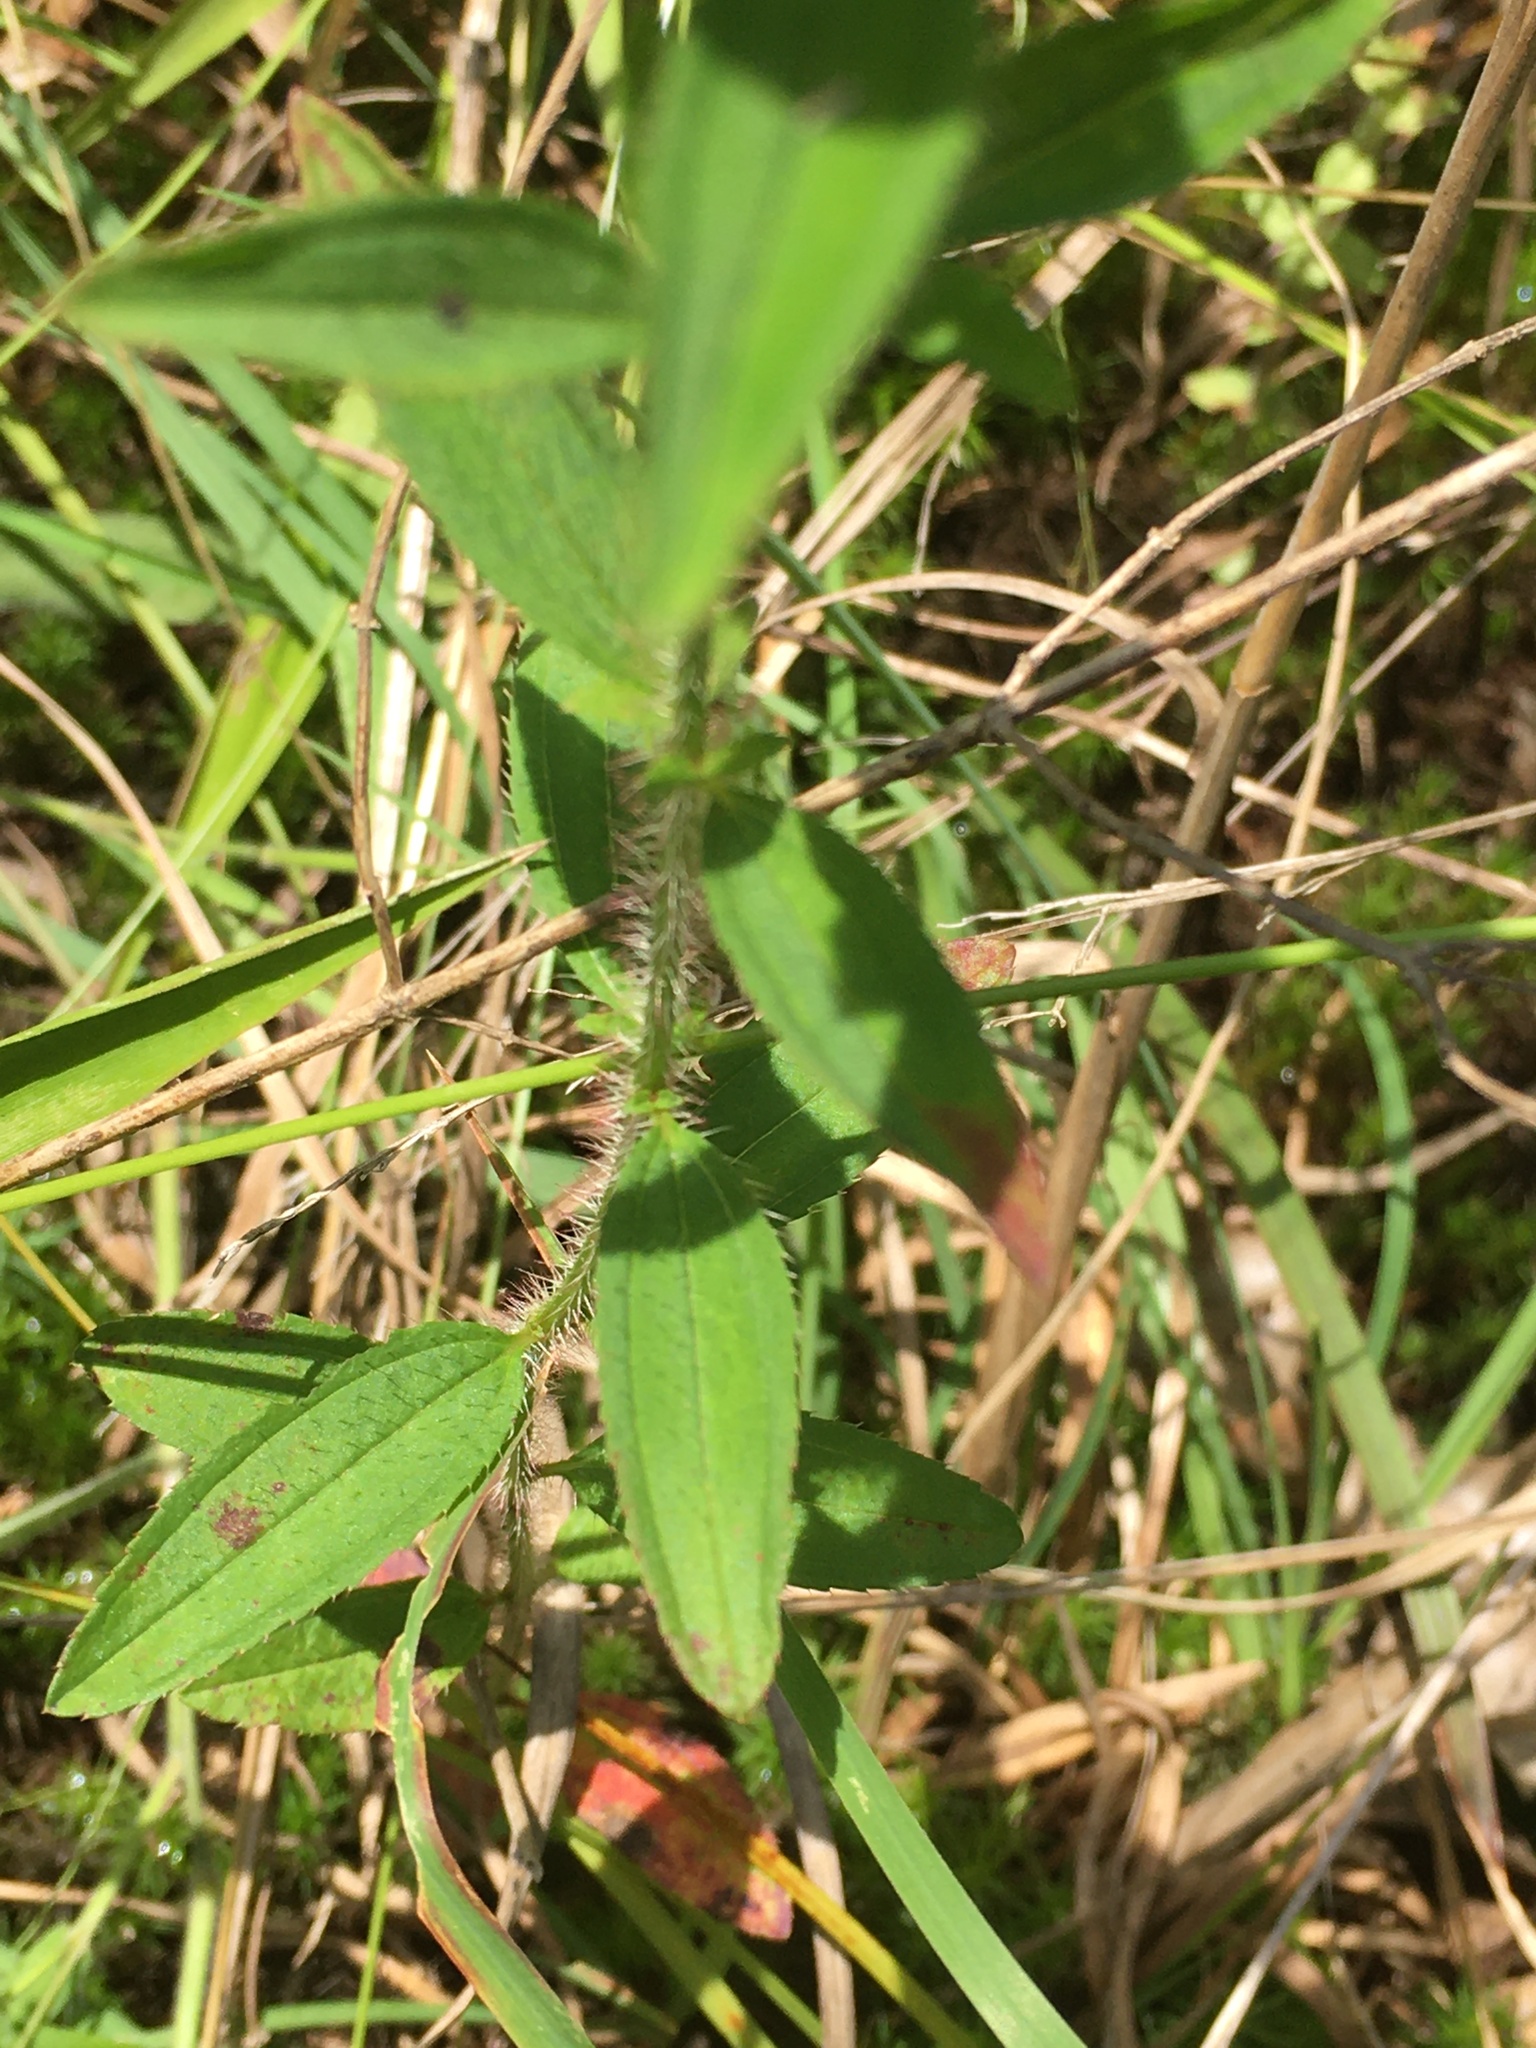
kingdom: Plantae
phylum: Tracheophyta
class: Magnoliopsida
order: Myrtales
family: Melastomataceae
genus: Rhexia
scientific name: Rhexia mariana
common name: Dull meadow-pitcher
